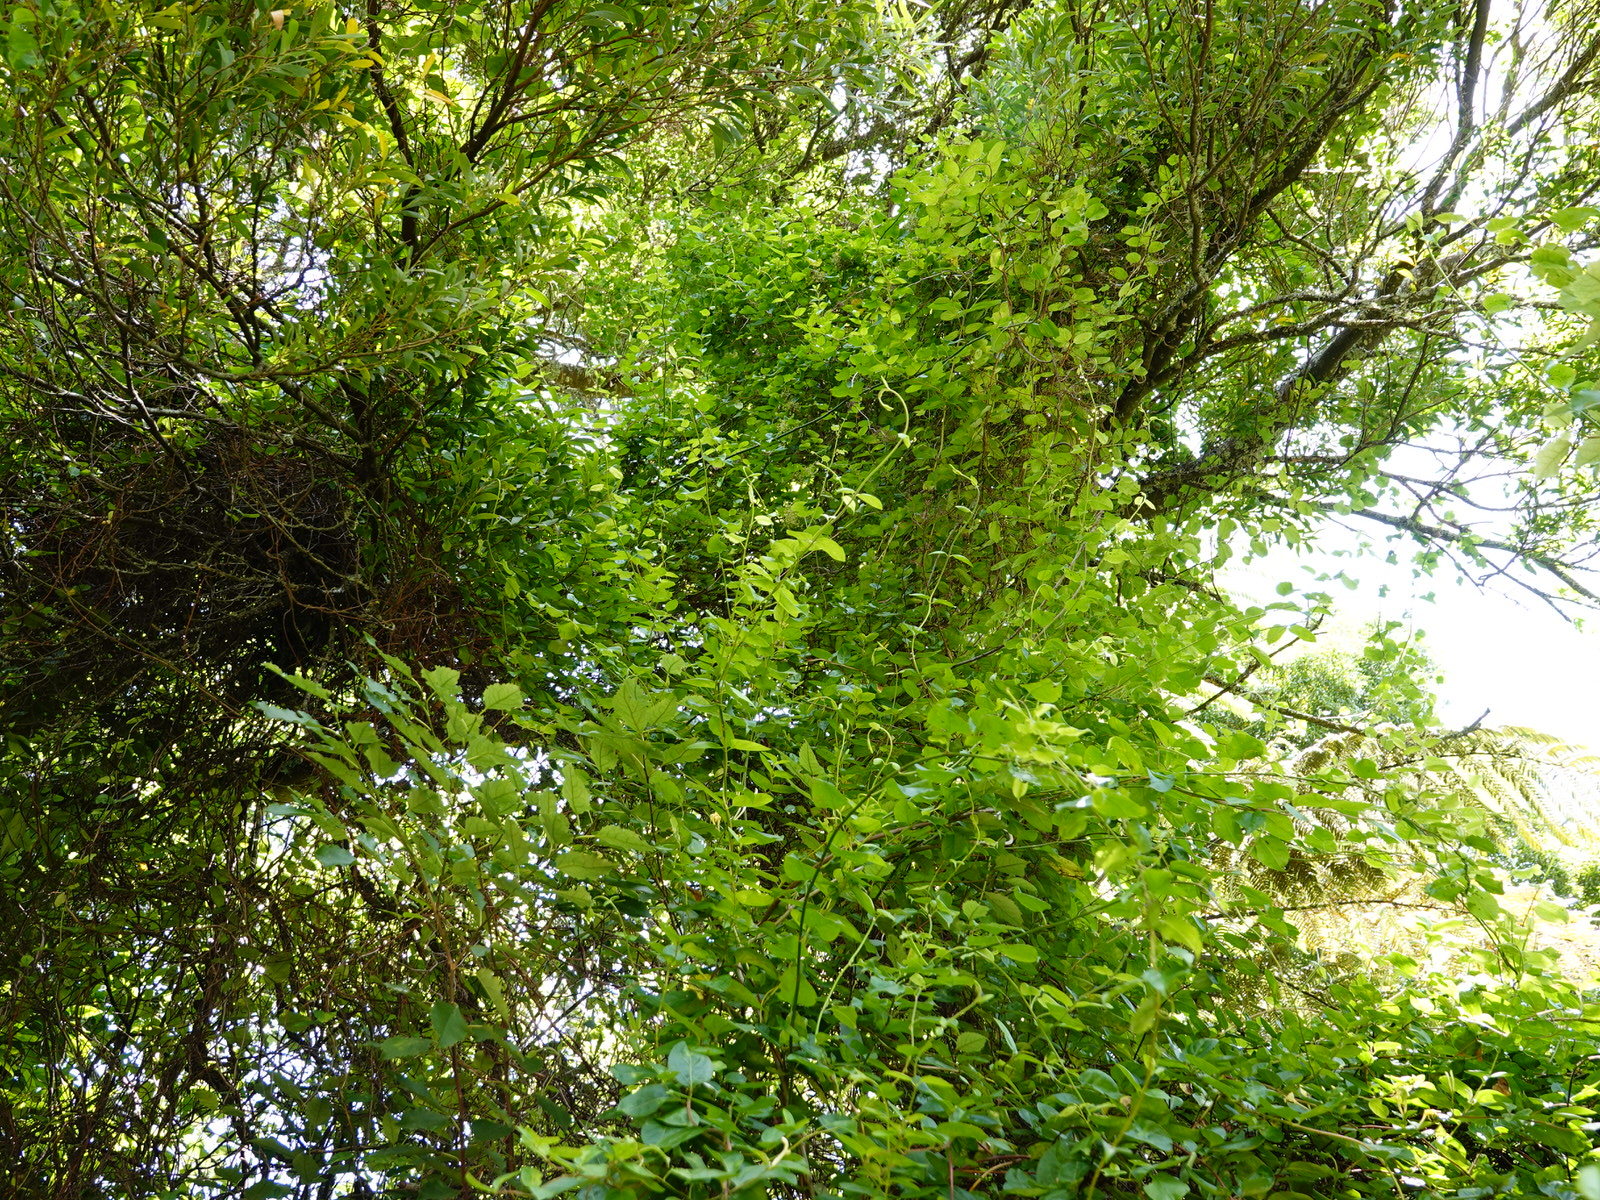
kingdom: Plantae
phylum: Tracheophyta
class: Magnoliopsida
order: Caryophyllales
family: Polygonaceae
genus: Muehlenbeckia
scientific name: Muehlenbeckia australis
